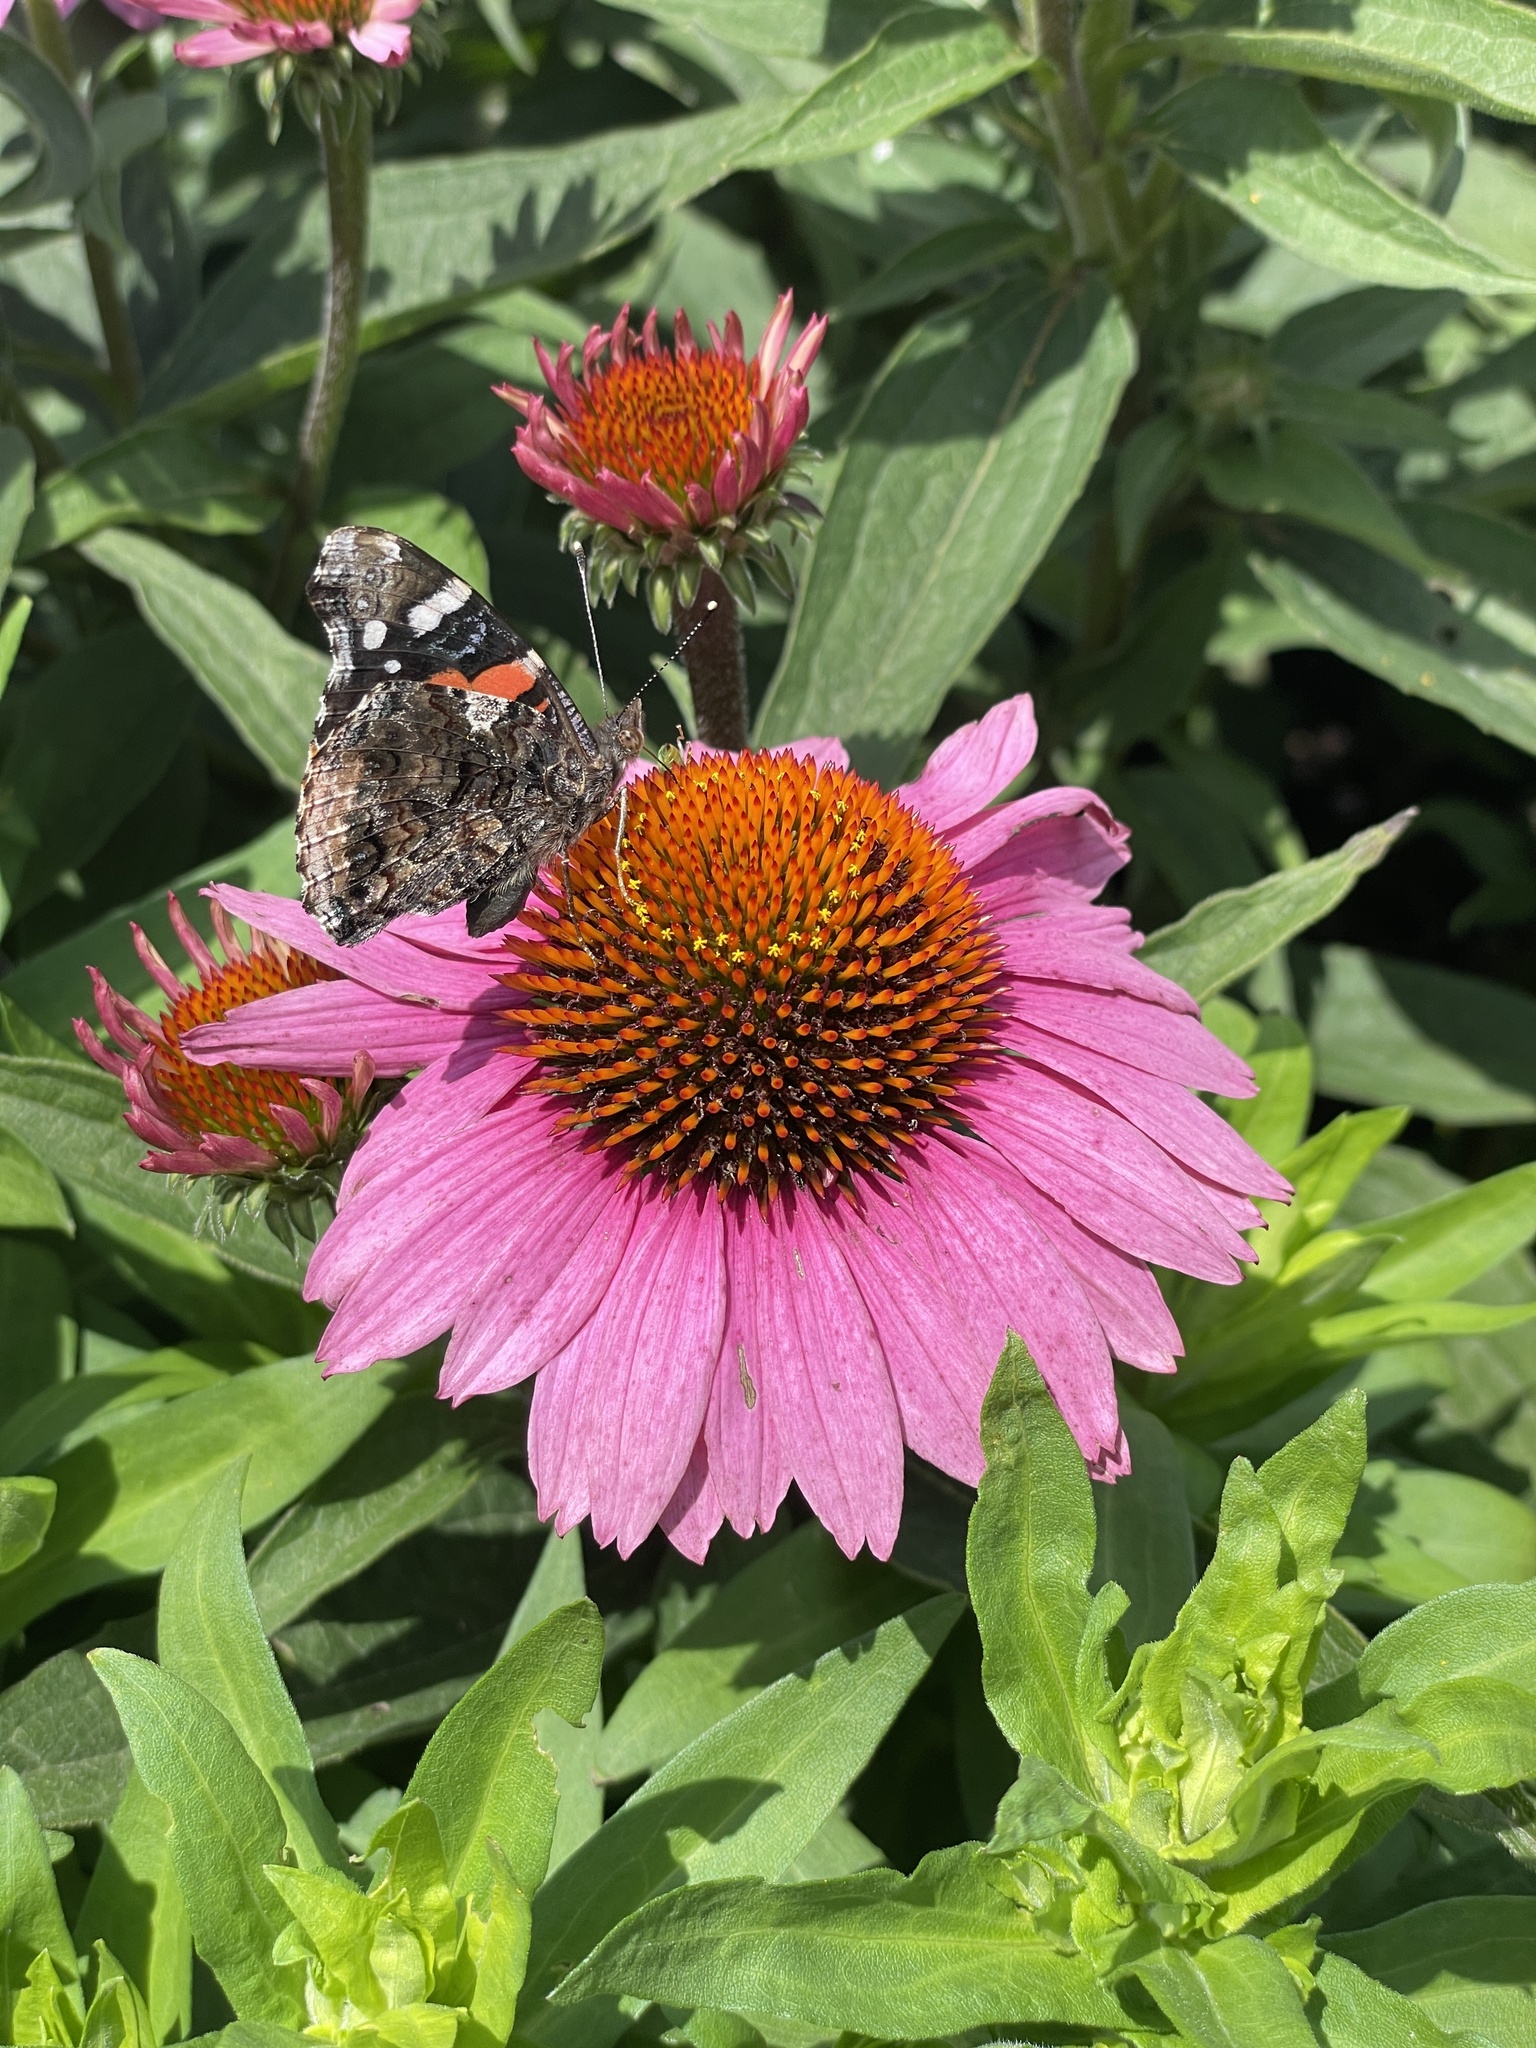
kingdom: Animalia
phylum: Arthropoda
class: Insecta
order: Lepidoptera
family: Nymphalidae
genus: Vanessa
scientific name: Vanessa atalanta
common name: Red admiral
